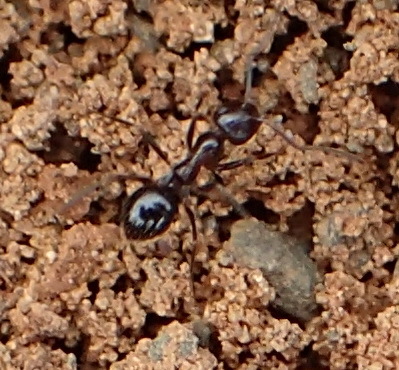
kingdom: Animalia
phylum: Arthropoda
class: Insecta
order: Hymenoptera
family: Formicidae
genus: Anoplolepis
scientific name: Anoplolepis steingroeveri
